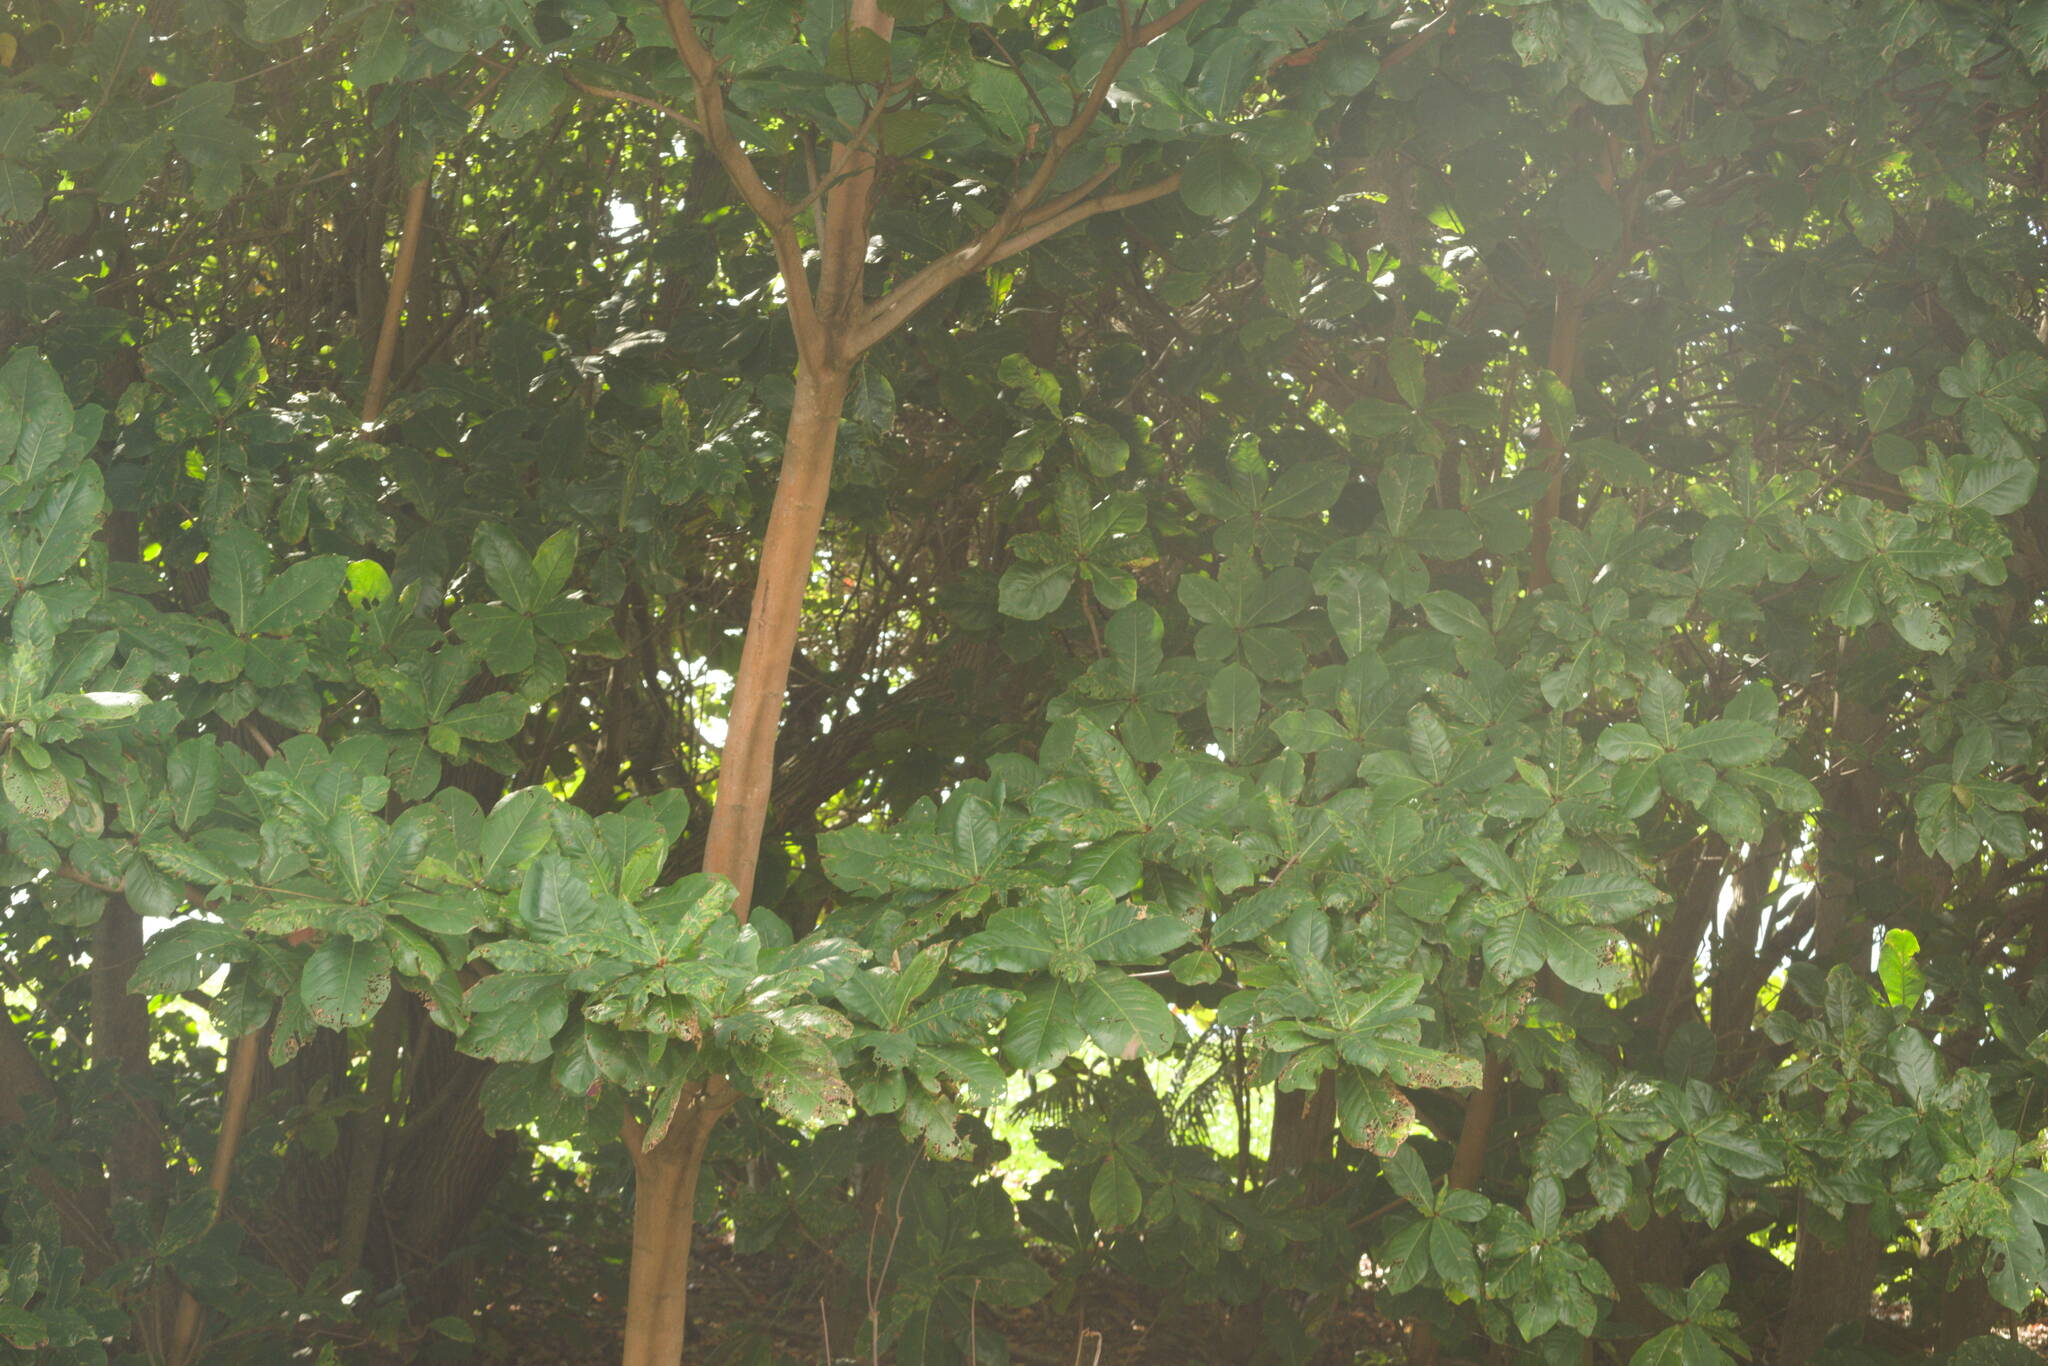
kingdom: Plantae
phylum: Tracheophyta
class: Magnoliopsida
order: Myrtales
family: Combretaceae
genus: Terminalia
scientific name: Terminalia catappa
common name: Tropical almond
